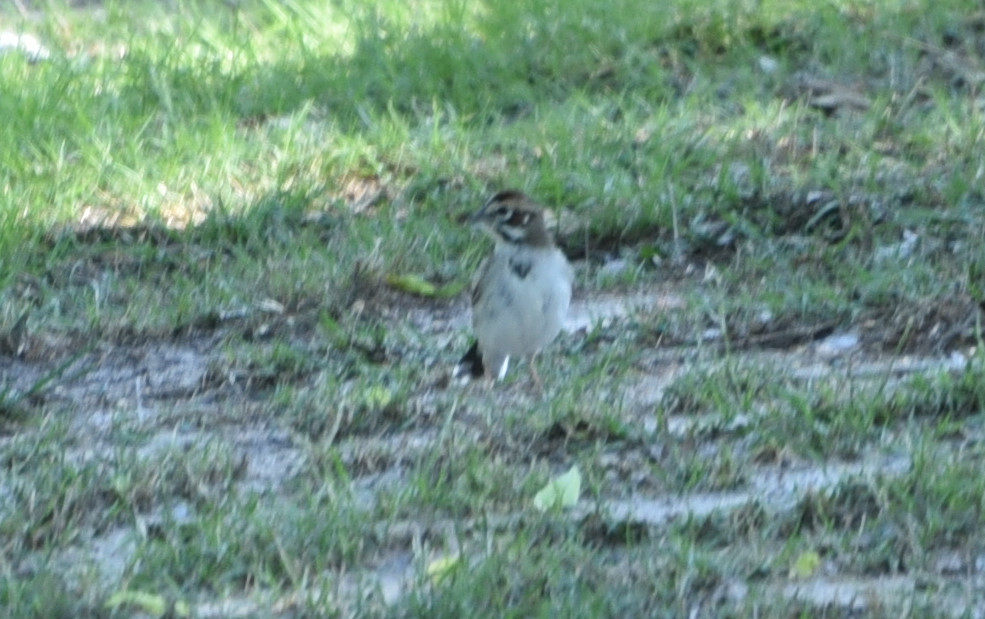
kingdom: Animalia
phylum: Chordata
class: Aves
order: Passeriformes
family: Passerellidae
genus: Chondestes
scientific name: Chondestes grammacus
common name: Lark sparrow
